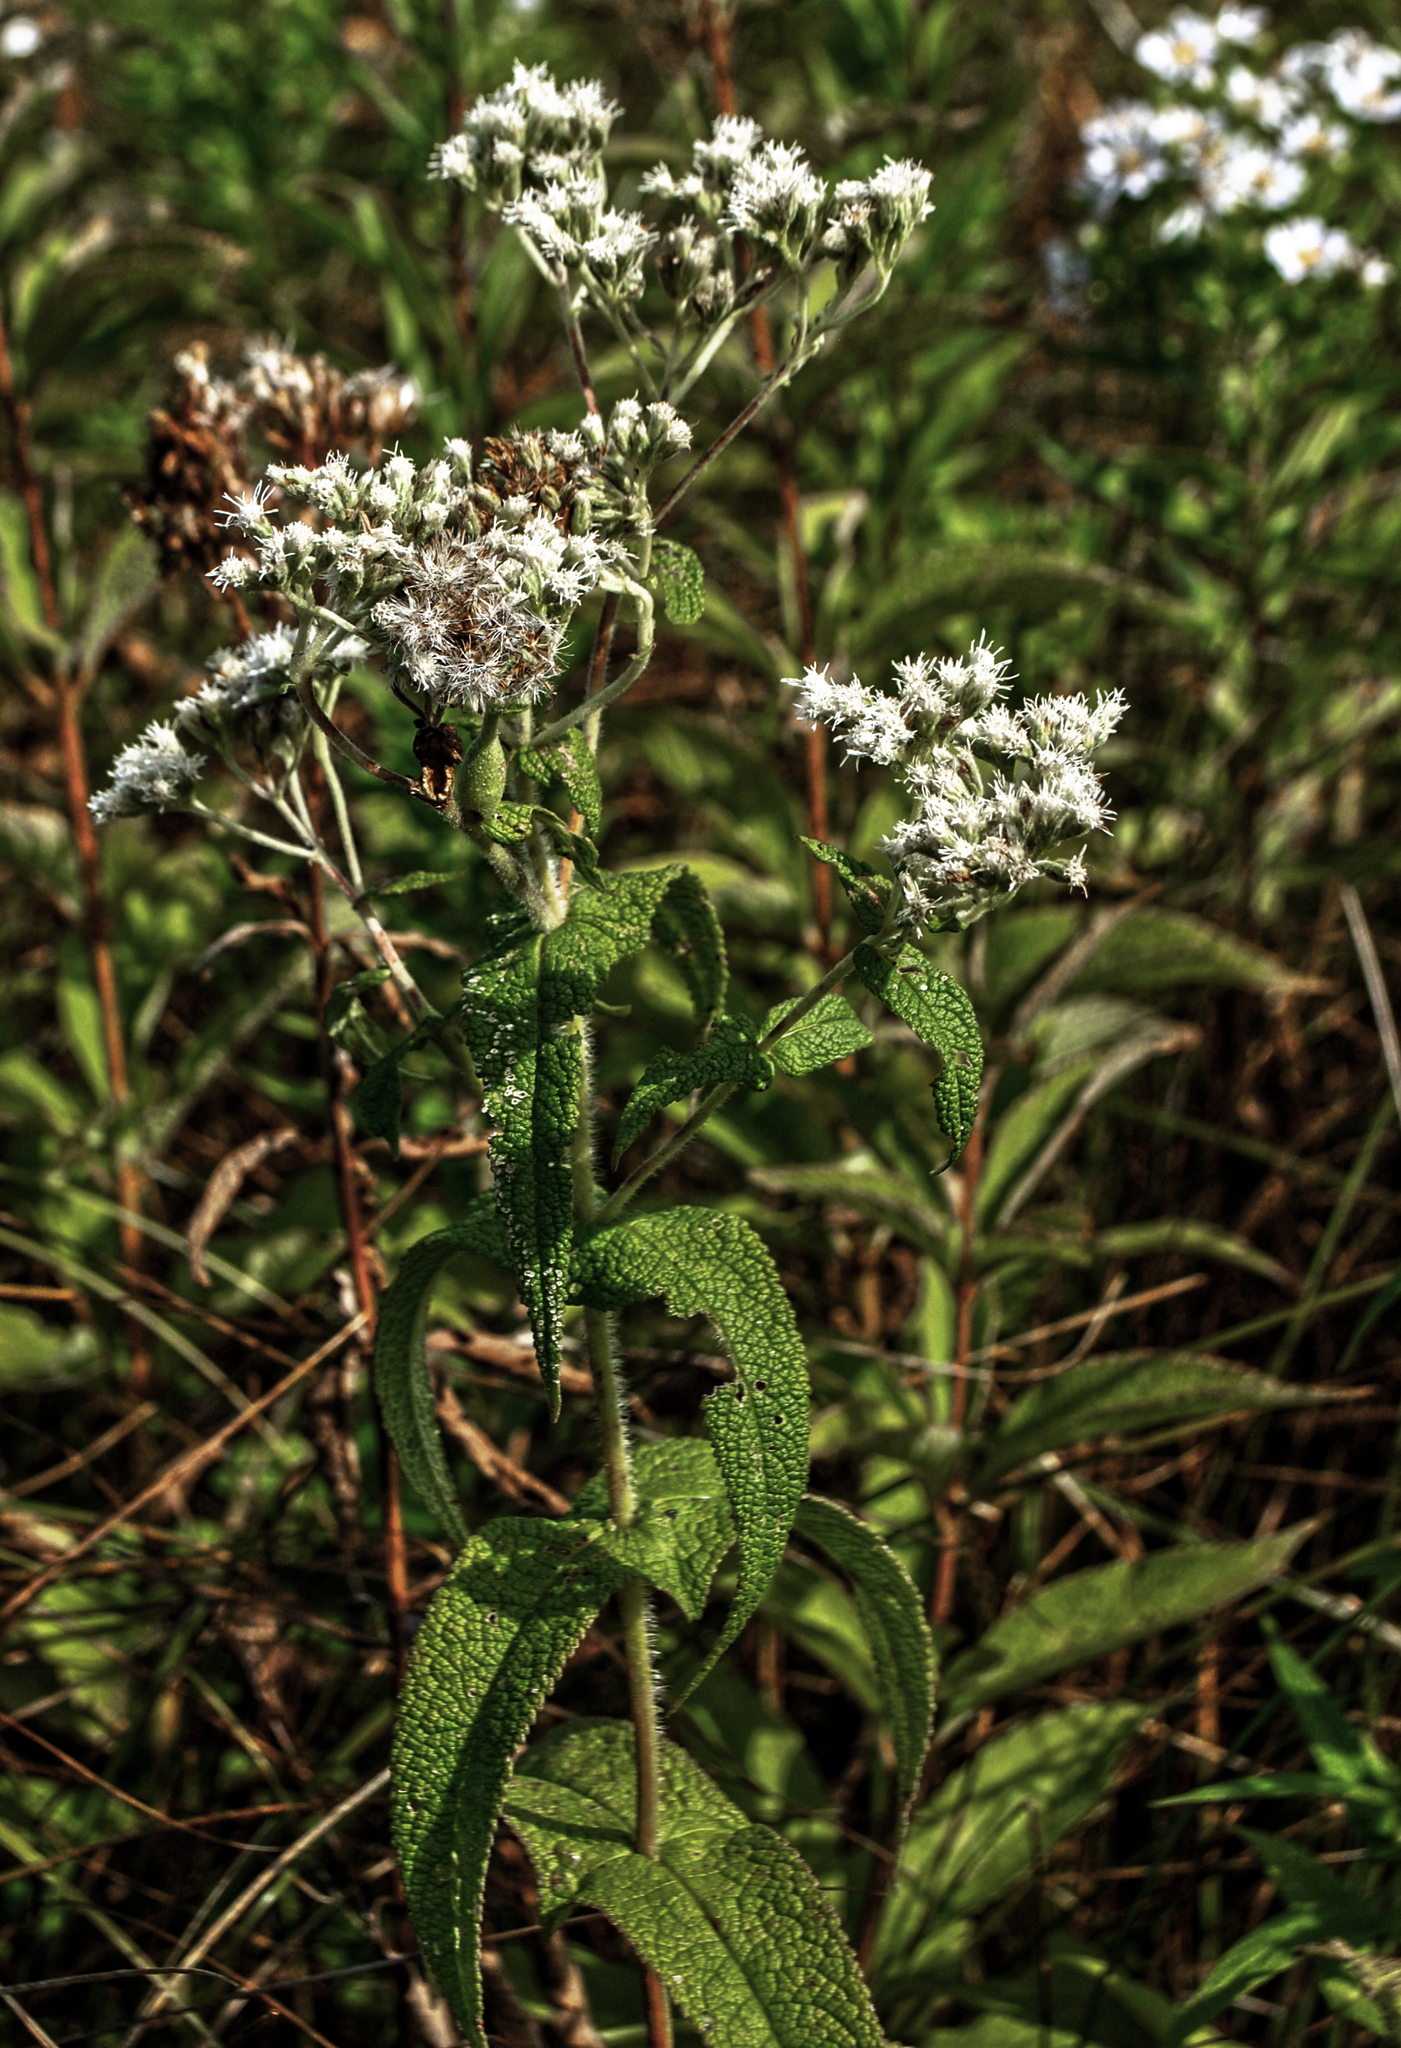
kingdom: Plantae
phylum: Tracheophyta
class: Magnoliopsida
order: Asterales
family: Asteraceae
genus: Eupatorium
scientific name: Eupatorium perfoliatum
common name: Boneset
